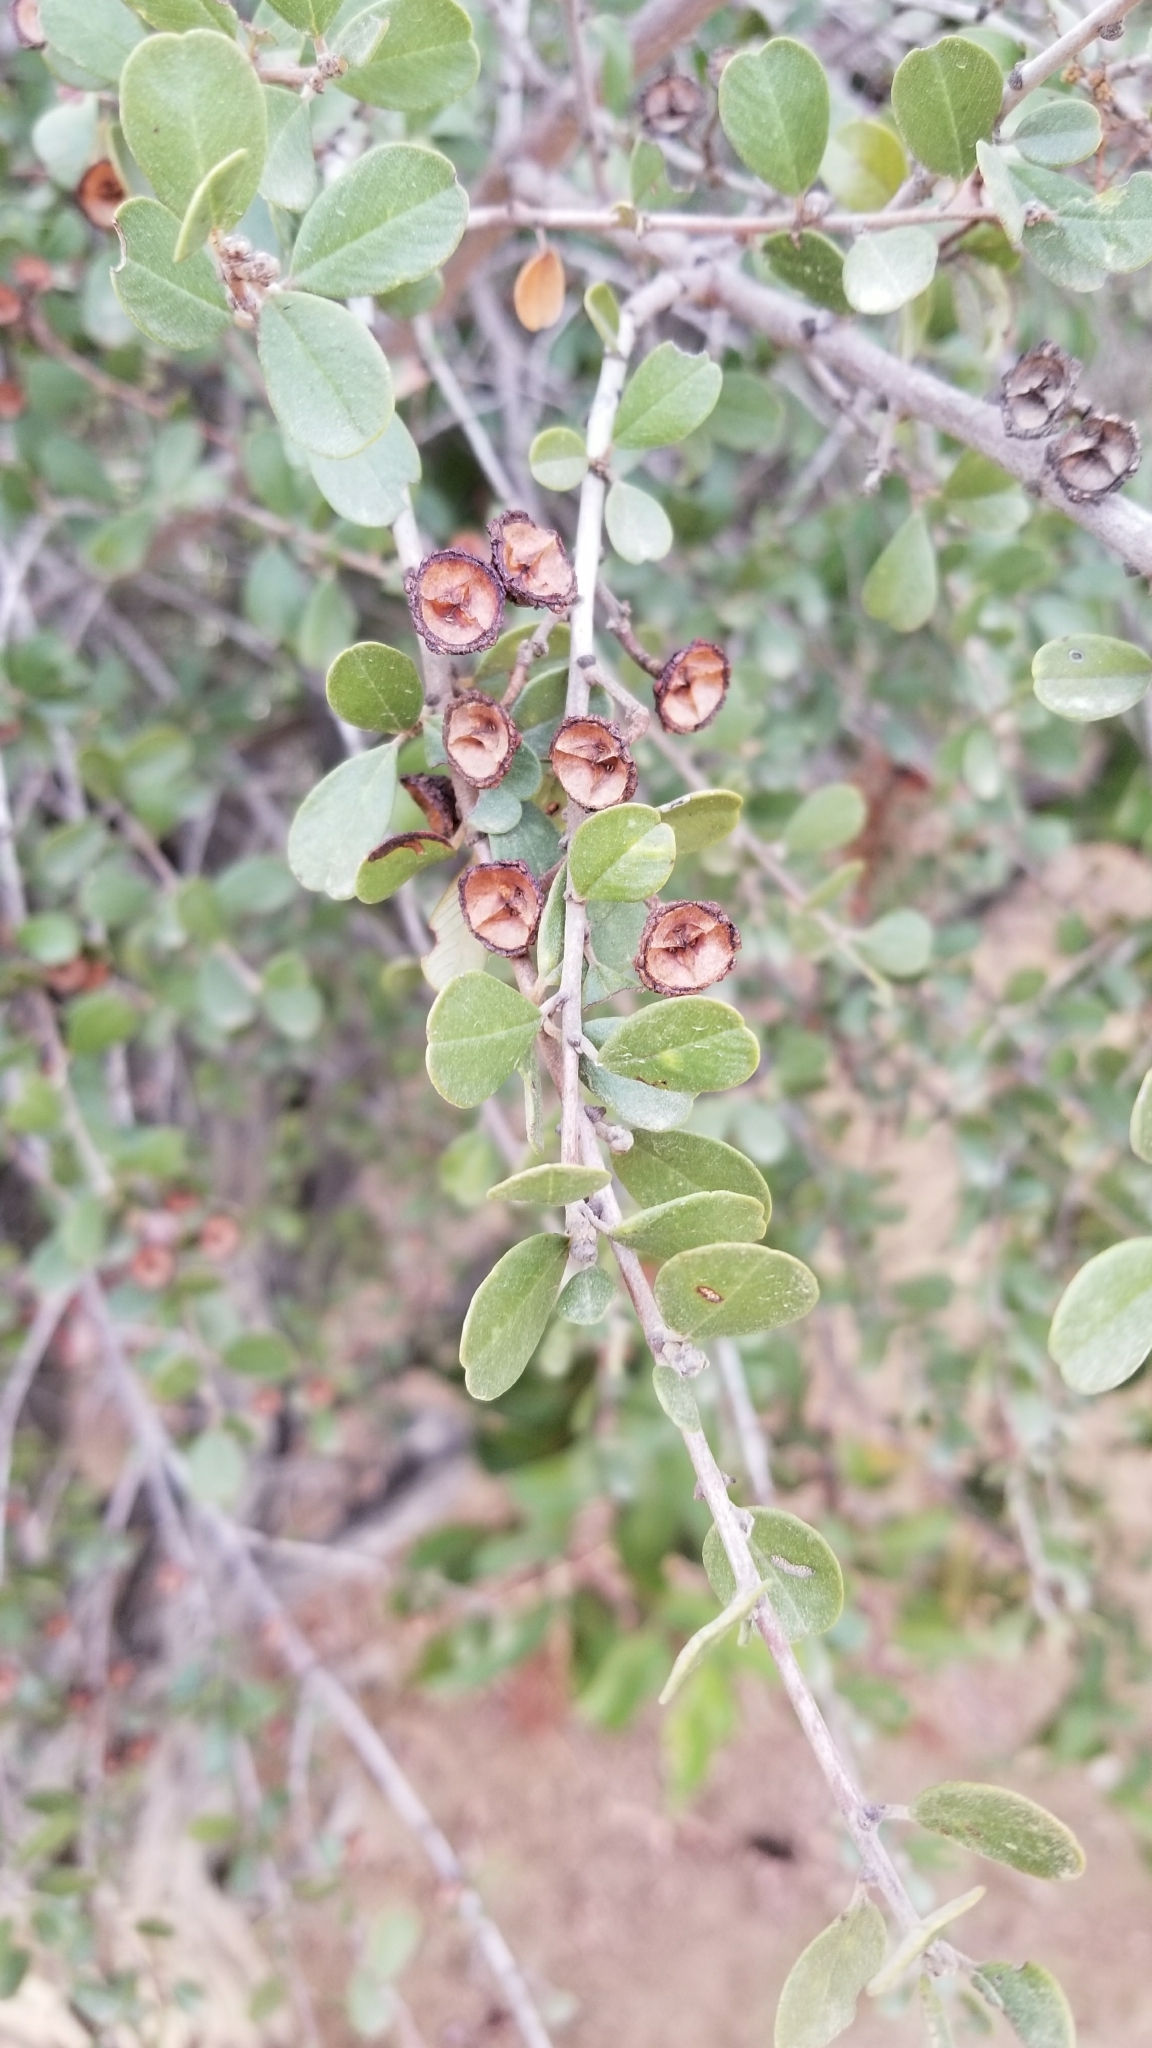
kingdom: Plantae
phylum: Tracheophyta
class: Magnoliopsida
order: Rosales
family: Rhamnaceae
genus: Ceanothus
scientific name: Ceanothus megacarpus
